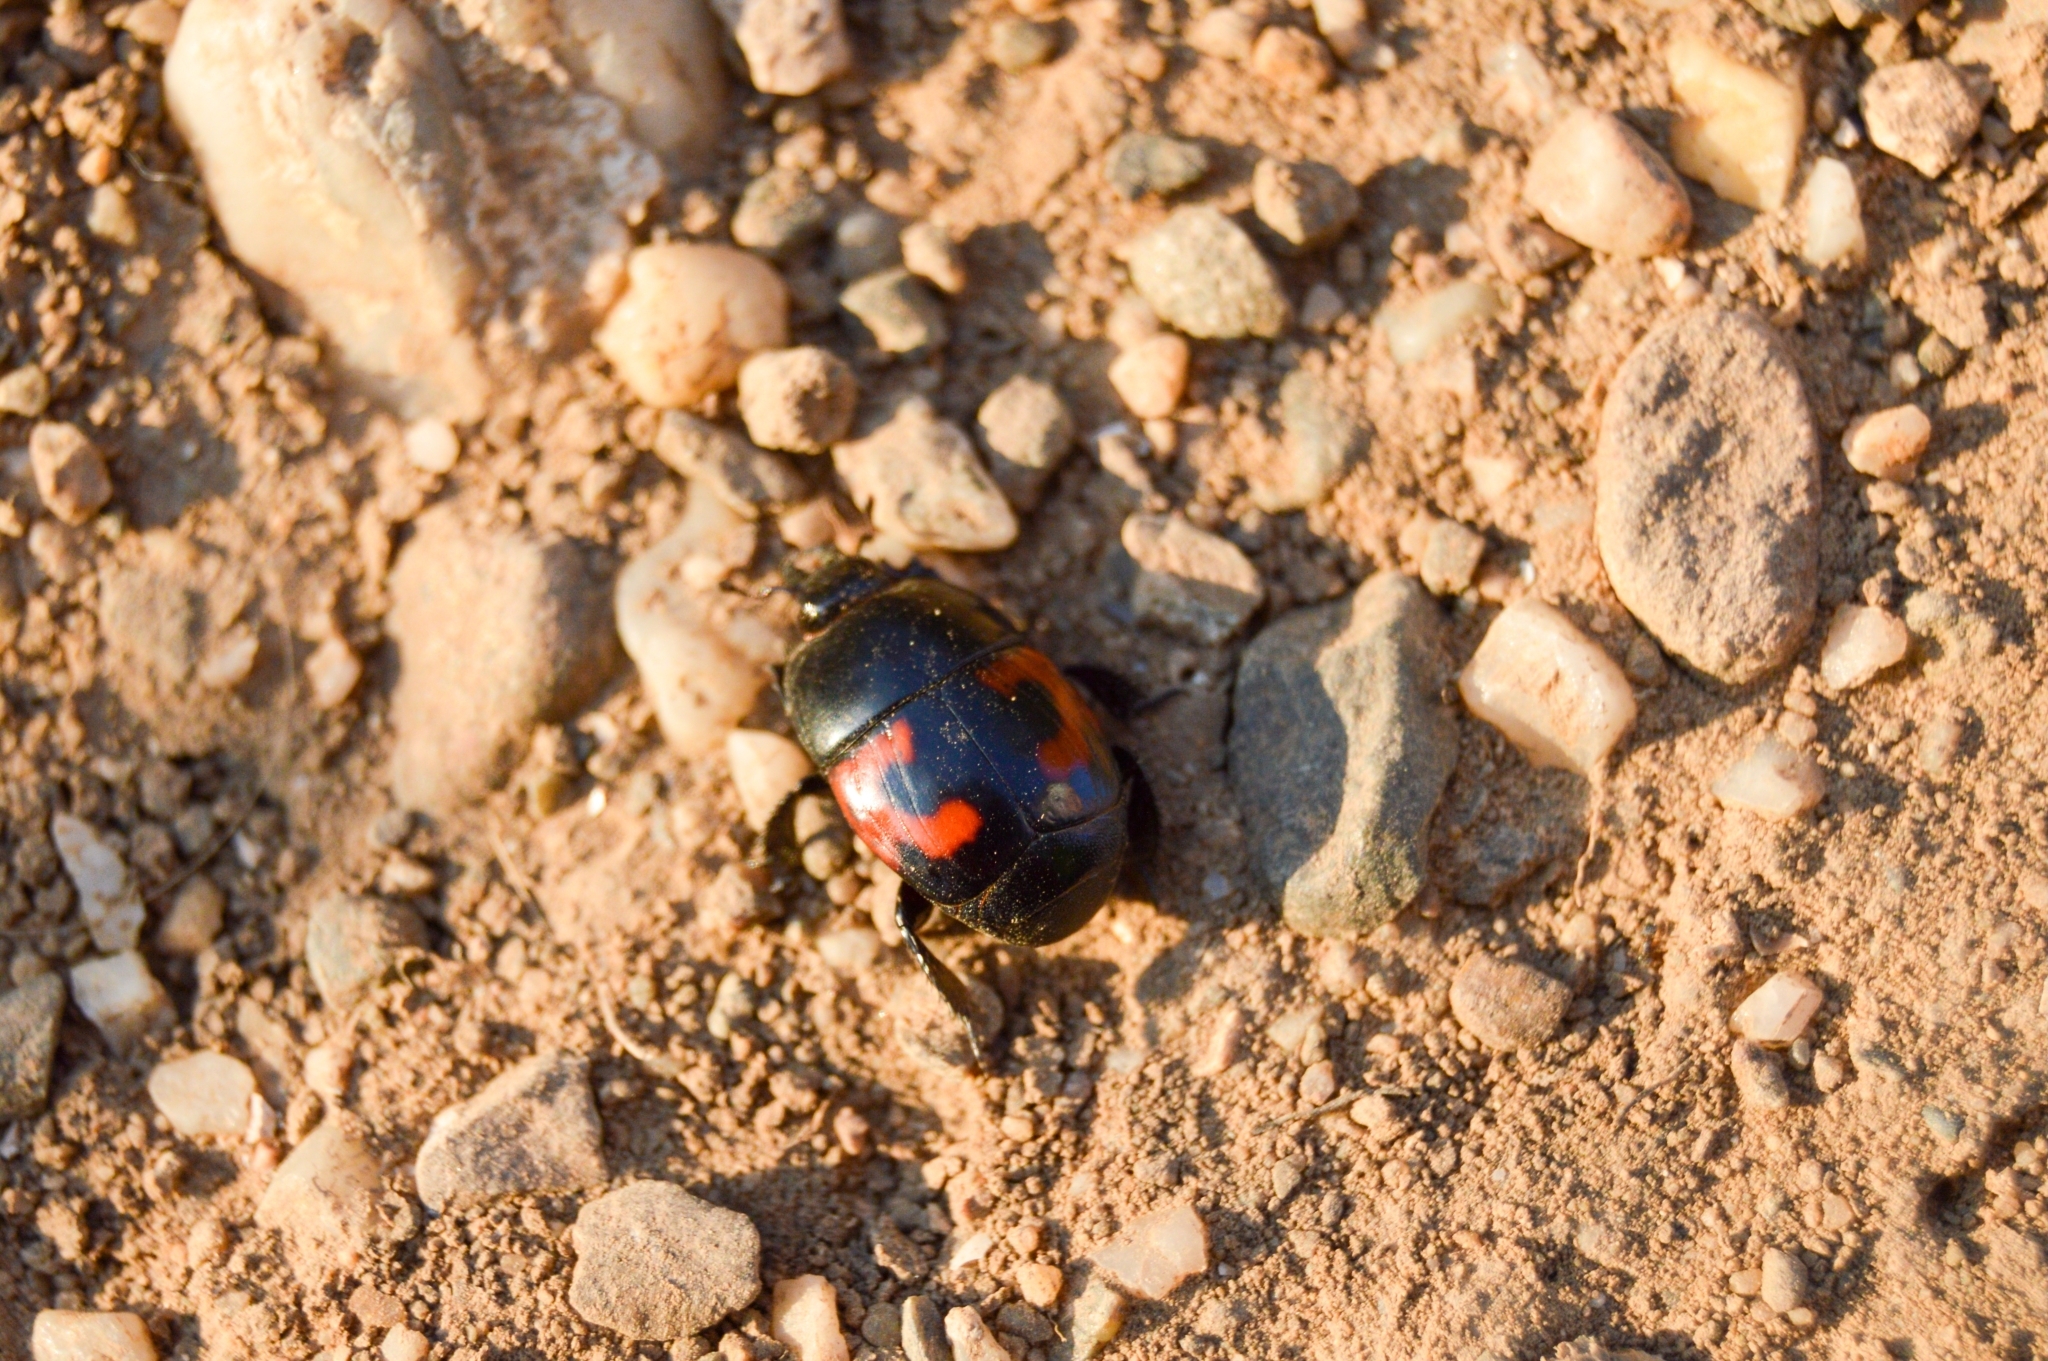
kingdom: Animalia
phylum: Arthropoda
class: Insecta
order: Coleoptera
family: Histeridae
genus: Hister
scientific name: Hister quadrimaculatus
